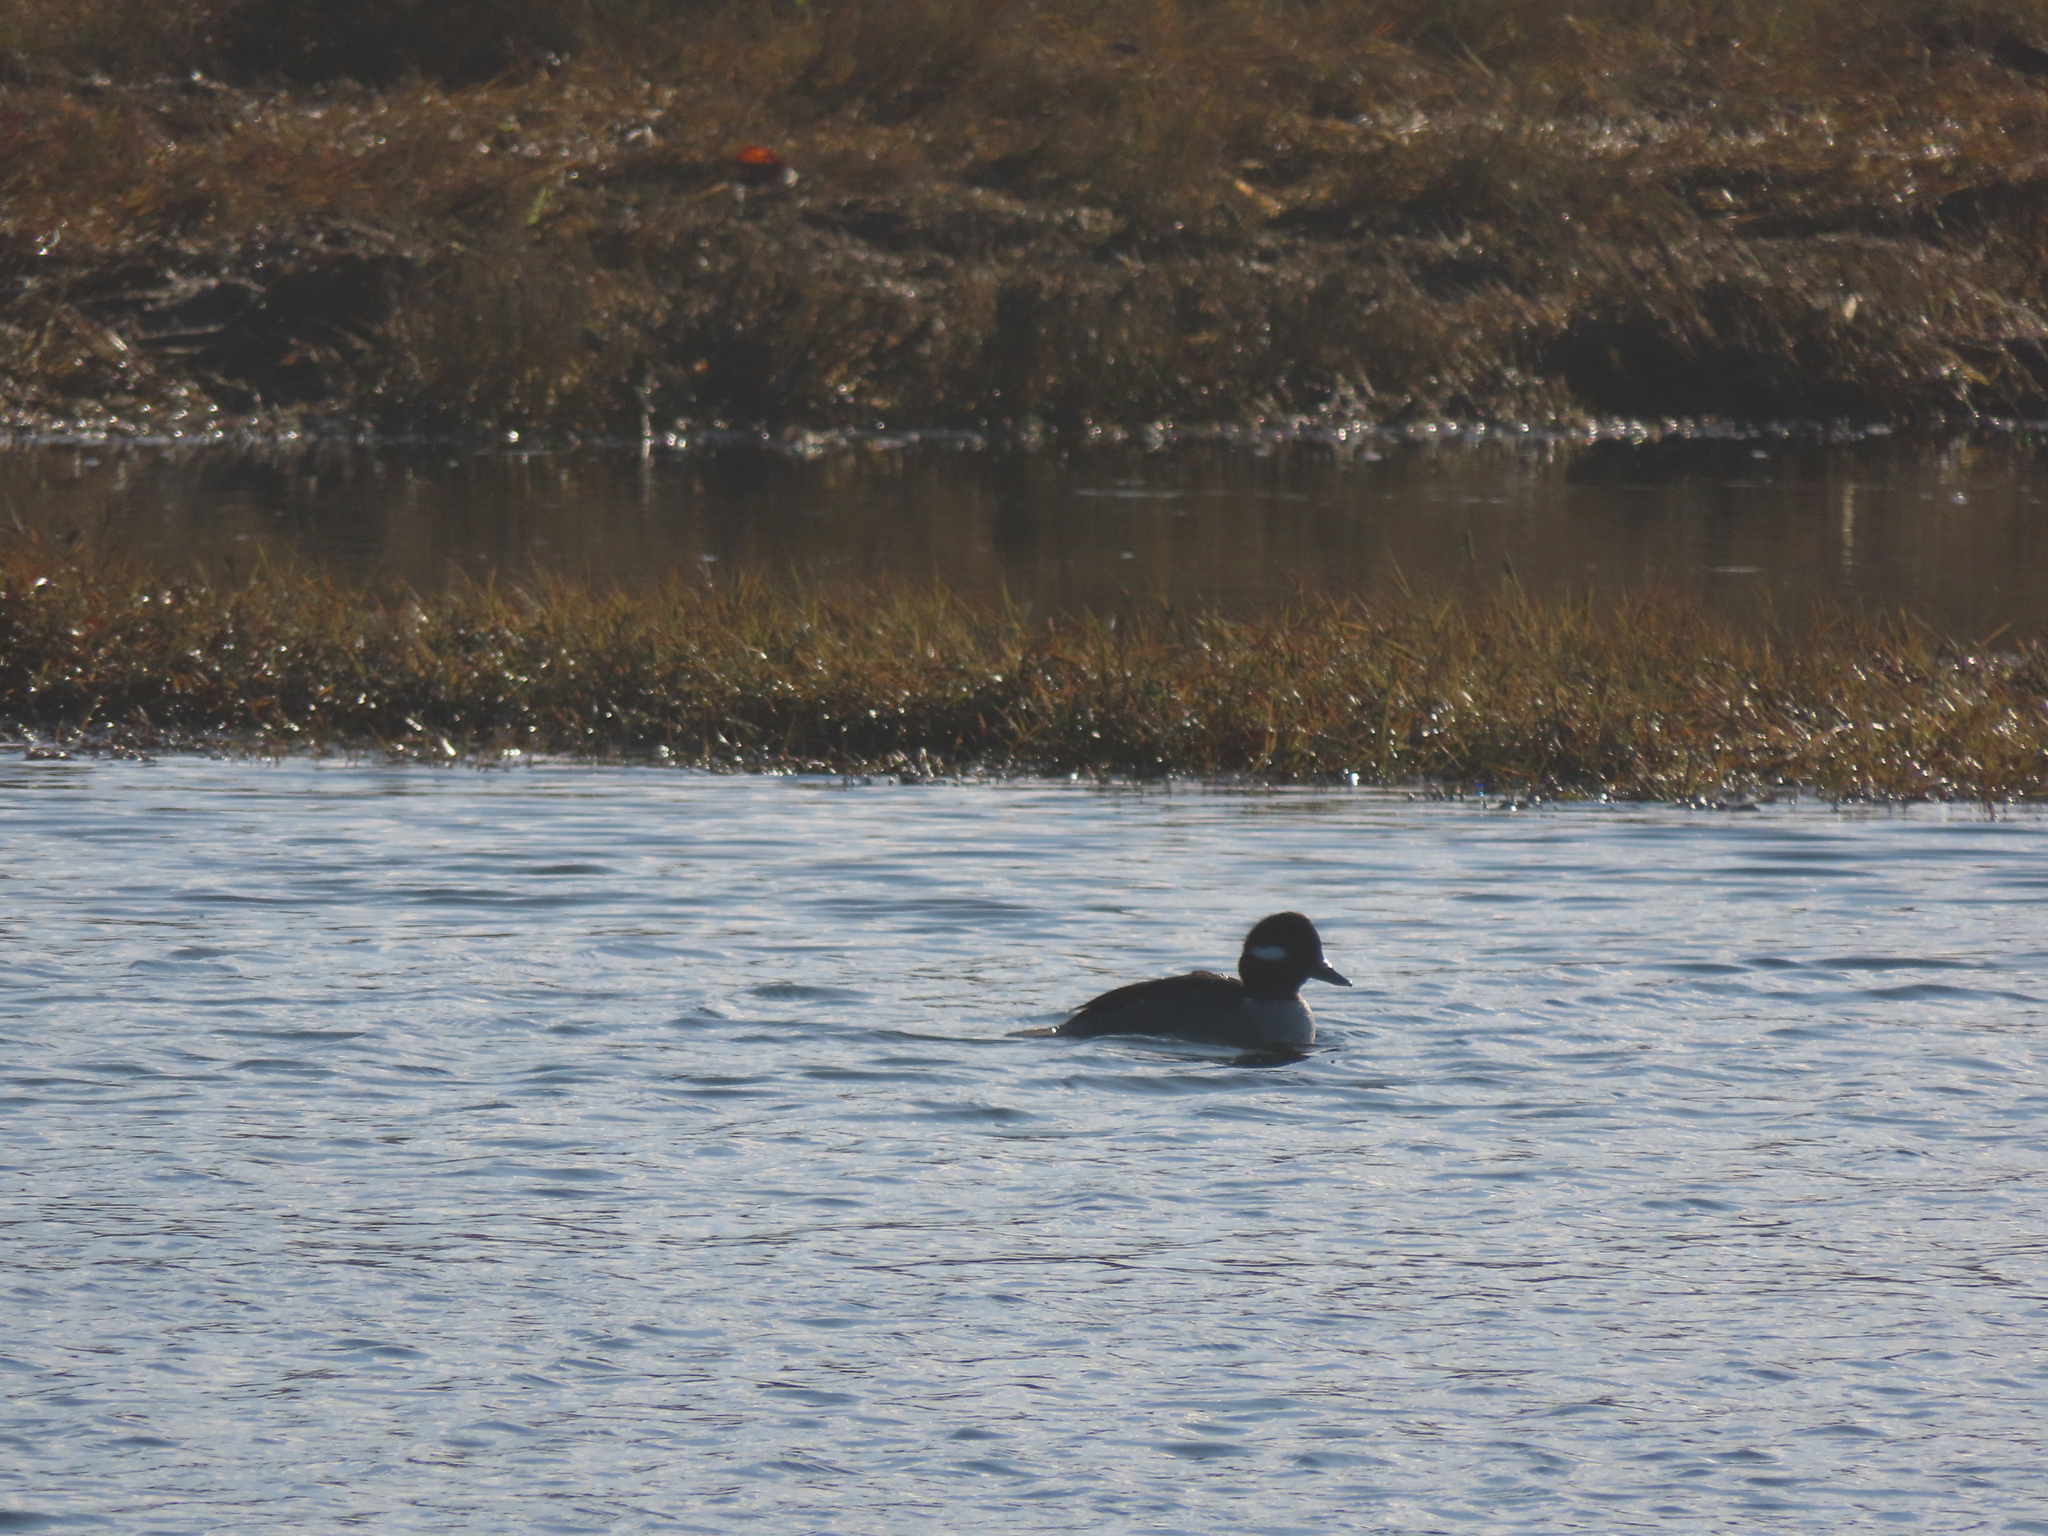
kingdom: Animalia
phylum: Chordata
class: Aves
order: Anseriformes
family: Anatidae
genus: Bucephala
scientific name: Bucephala albeola
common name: Bufflehead
